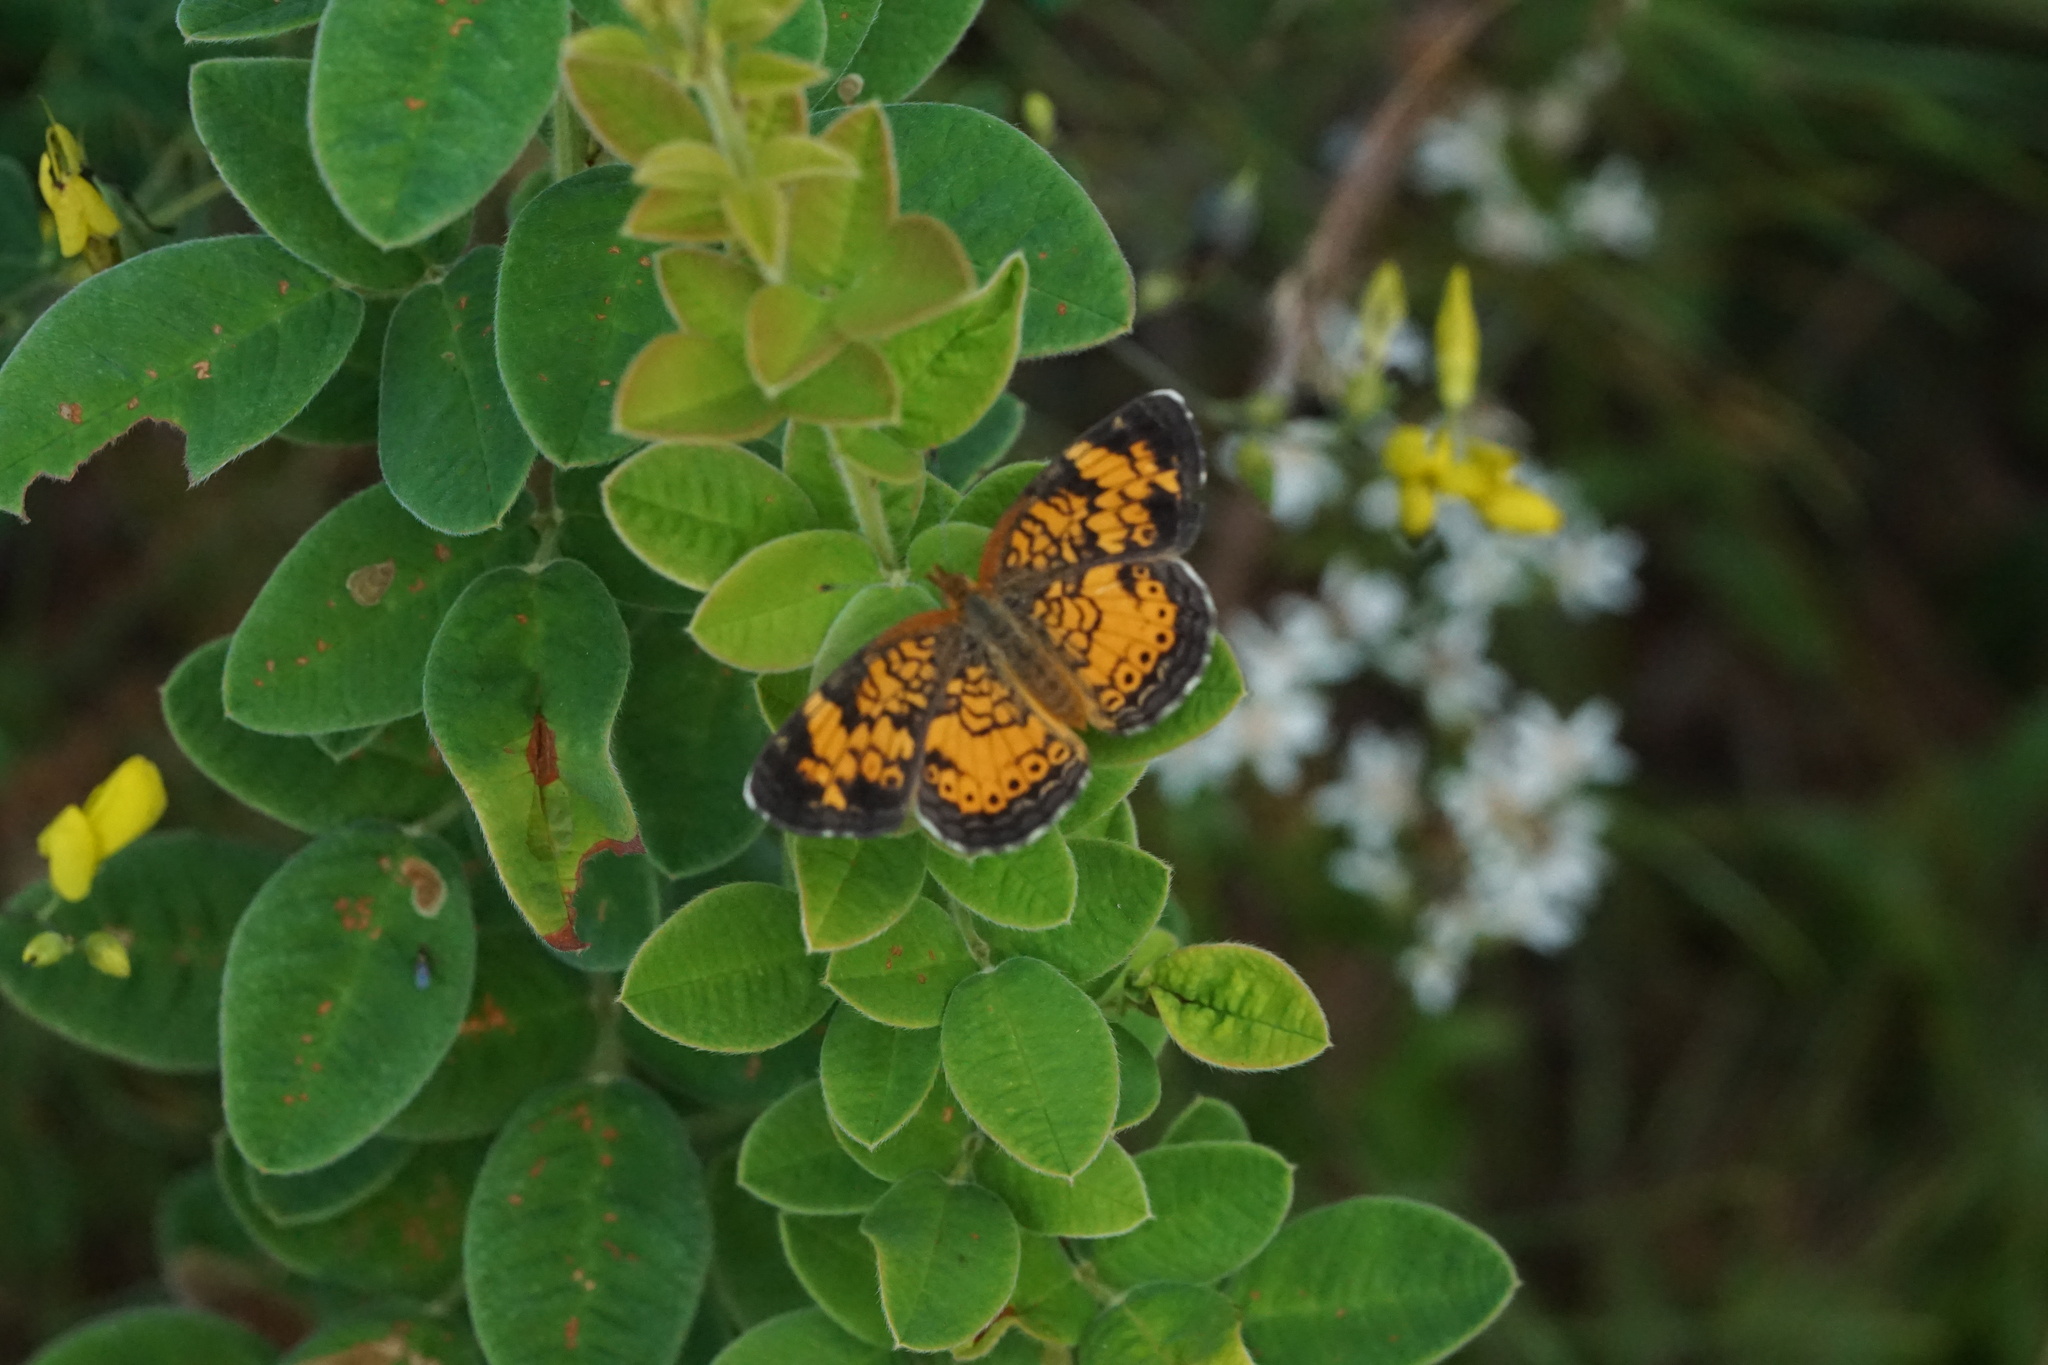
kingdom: Animalia
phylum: Arthropoda
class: Insecta
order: Lepidoptera
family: Nymphalidae
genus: Phyciodes
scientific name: Phyciodes tharos
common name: Pearl crescent
